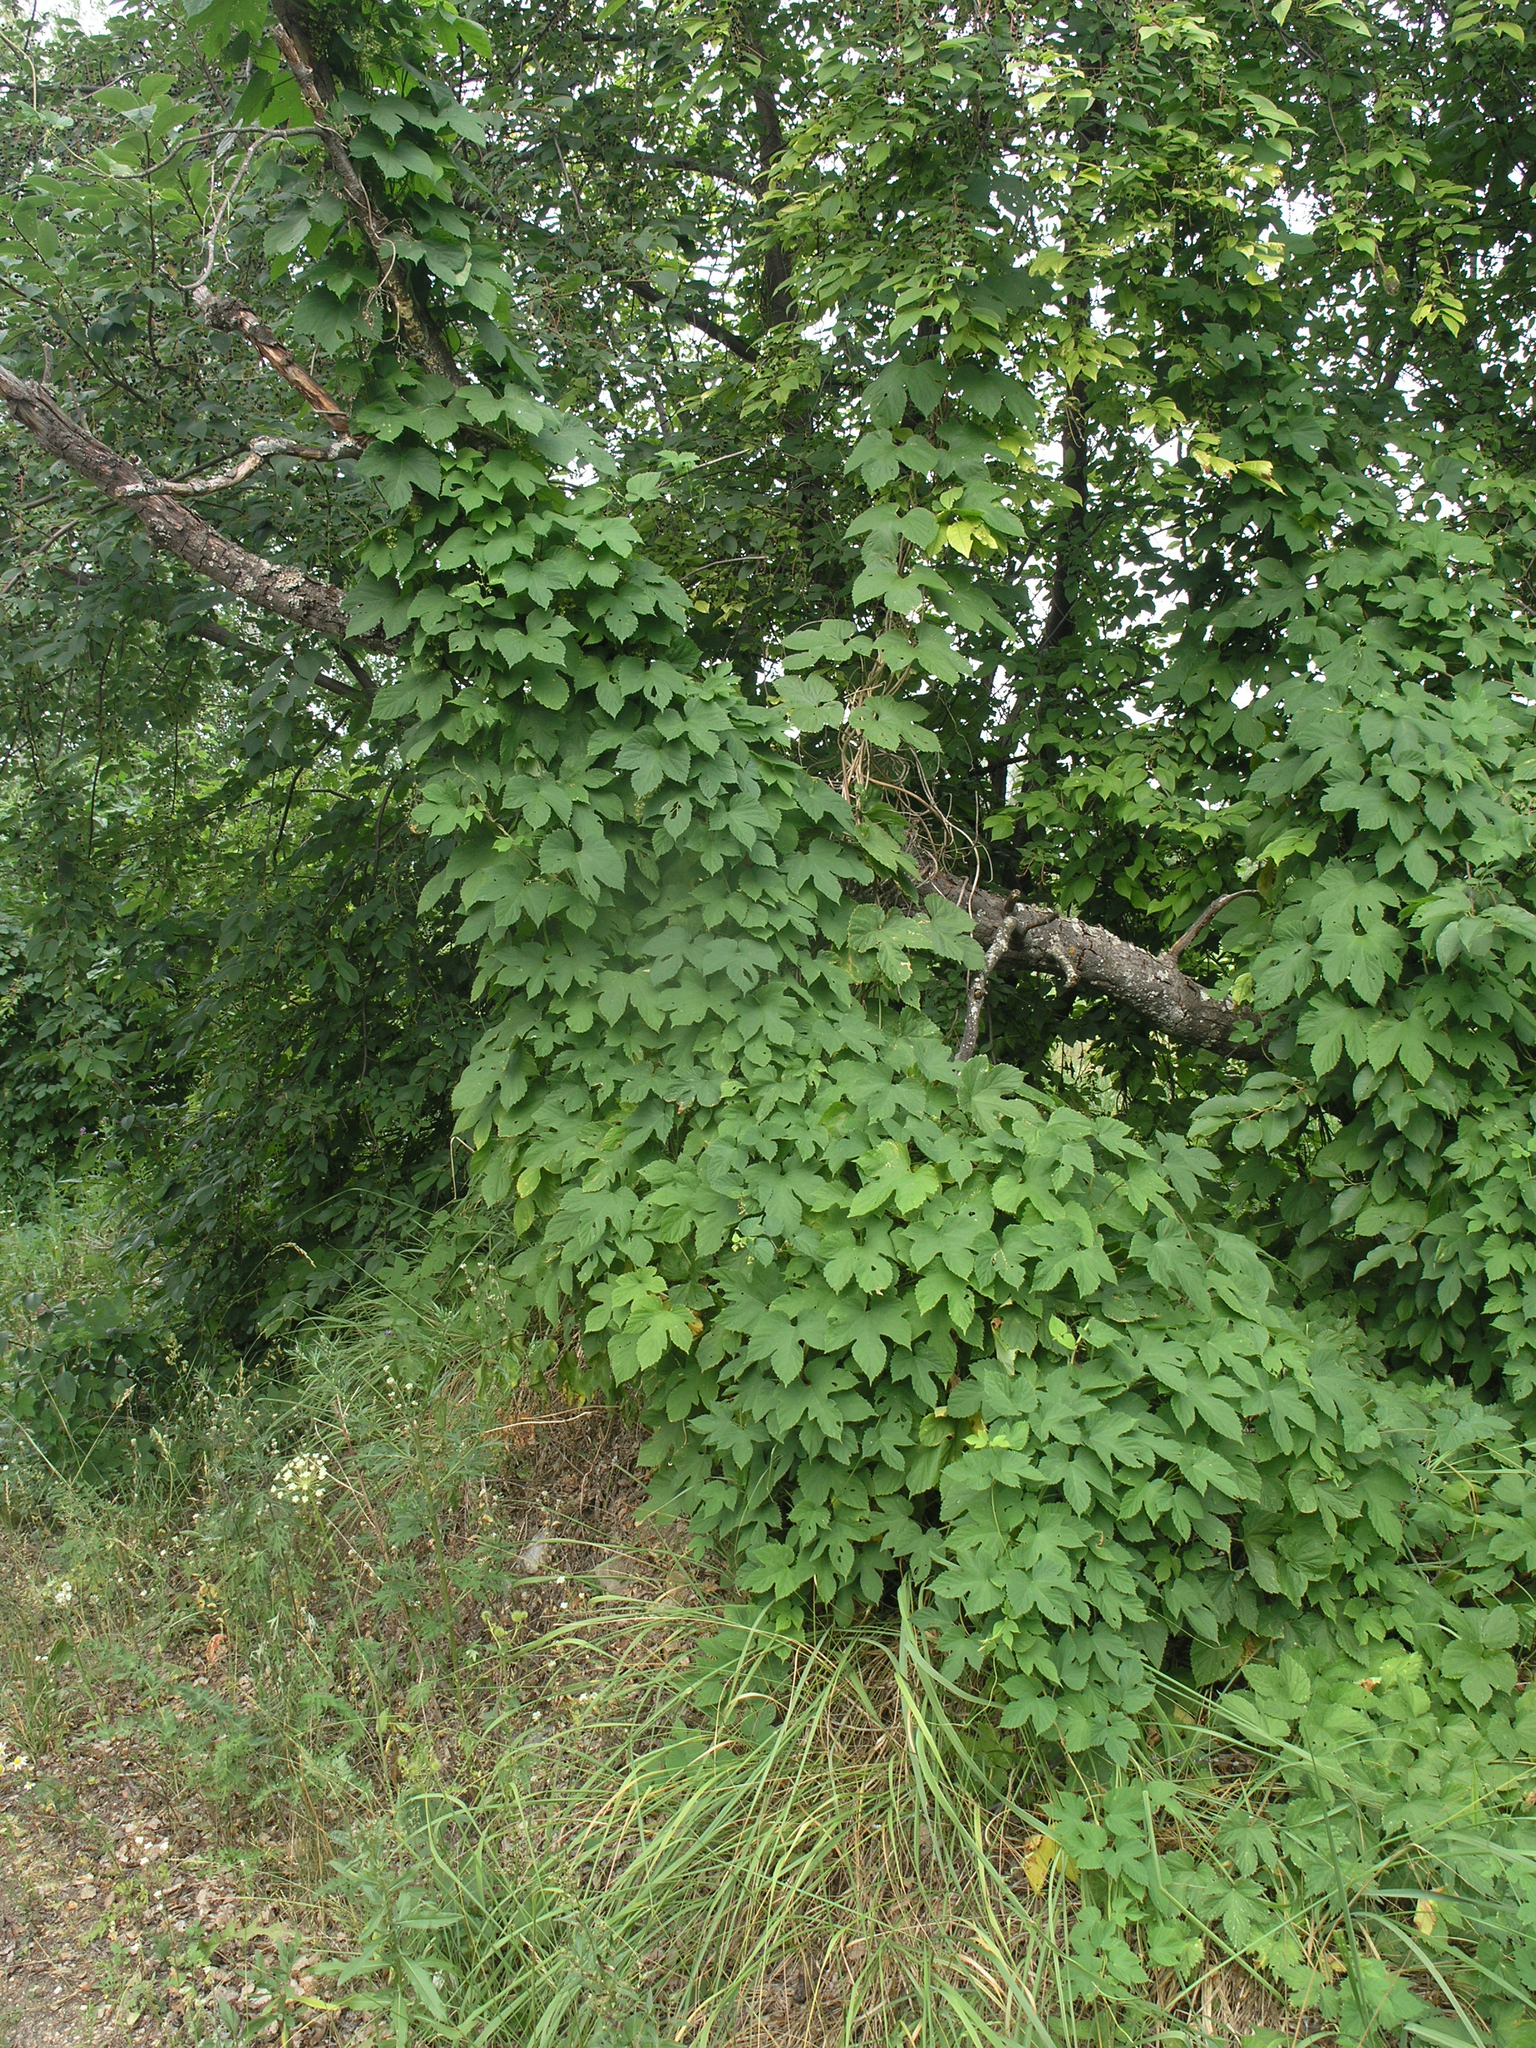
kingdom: Plantae
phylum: Tracheophyta
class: Magnoliopsida
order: Rosales
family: Cannabaceae
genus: Humulus
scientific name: Humulus lupulus
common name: Hop
